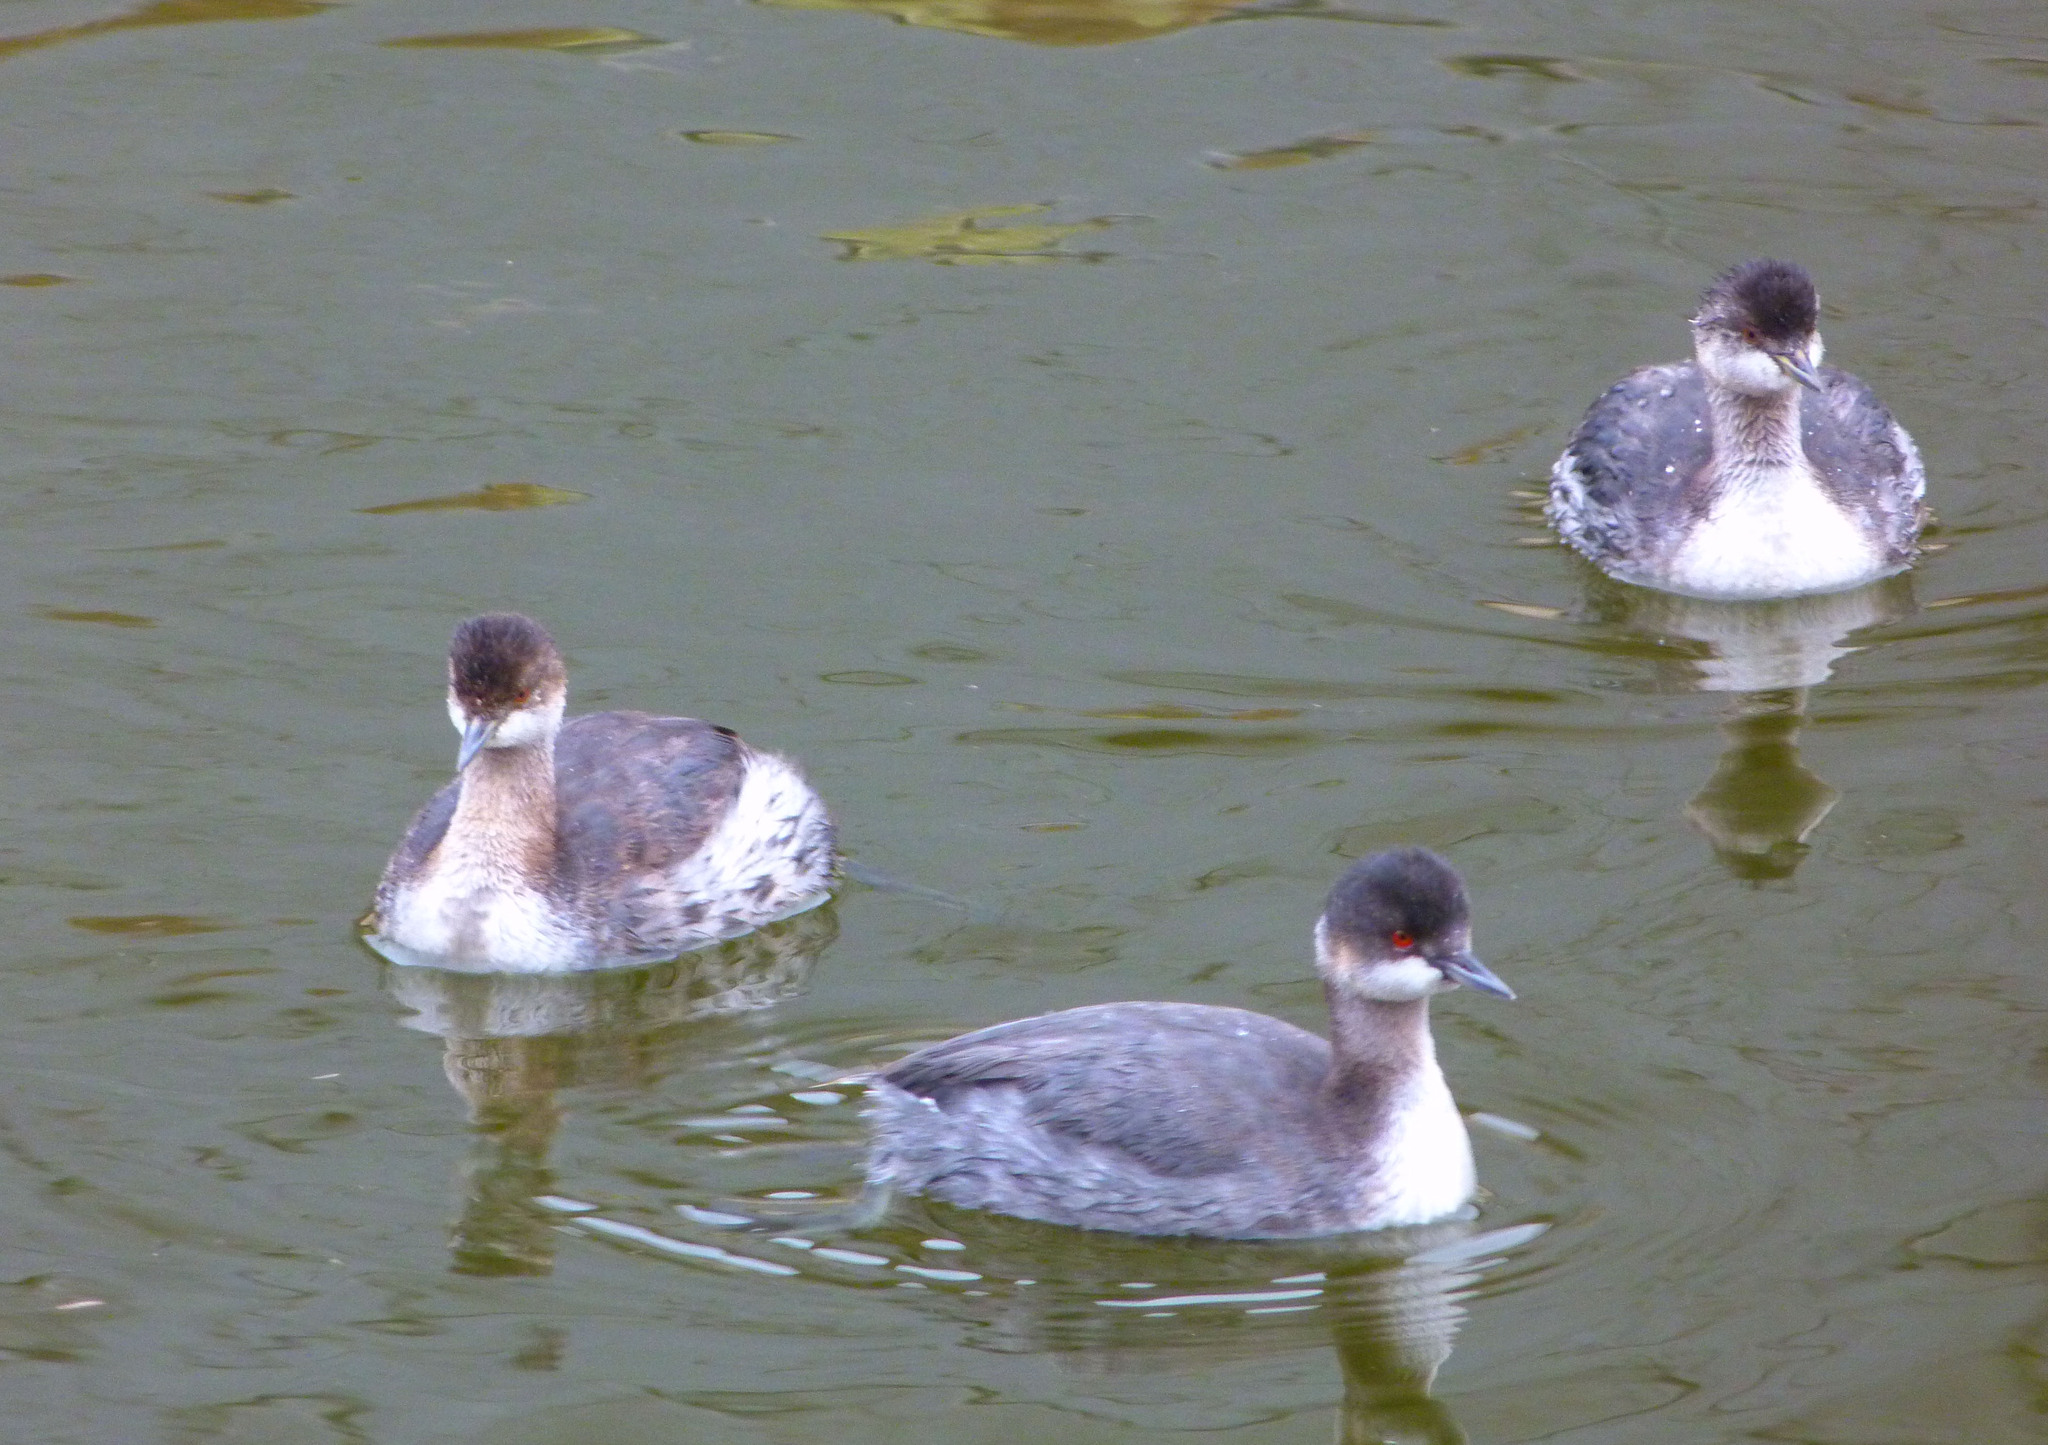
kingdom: Animalia
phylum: Chordata
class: Aves
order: Podicipediformes
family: Podicipedidae
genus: Podiceps
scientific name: Podiceps nigricollis
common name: Black-necked grebe
